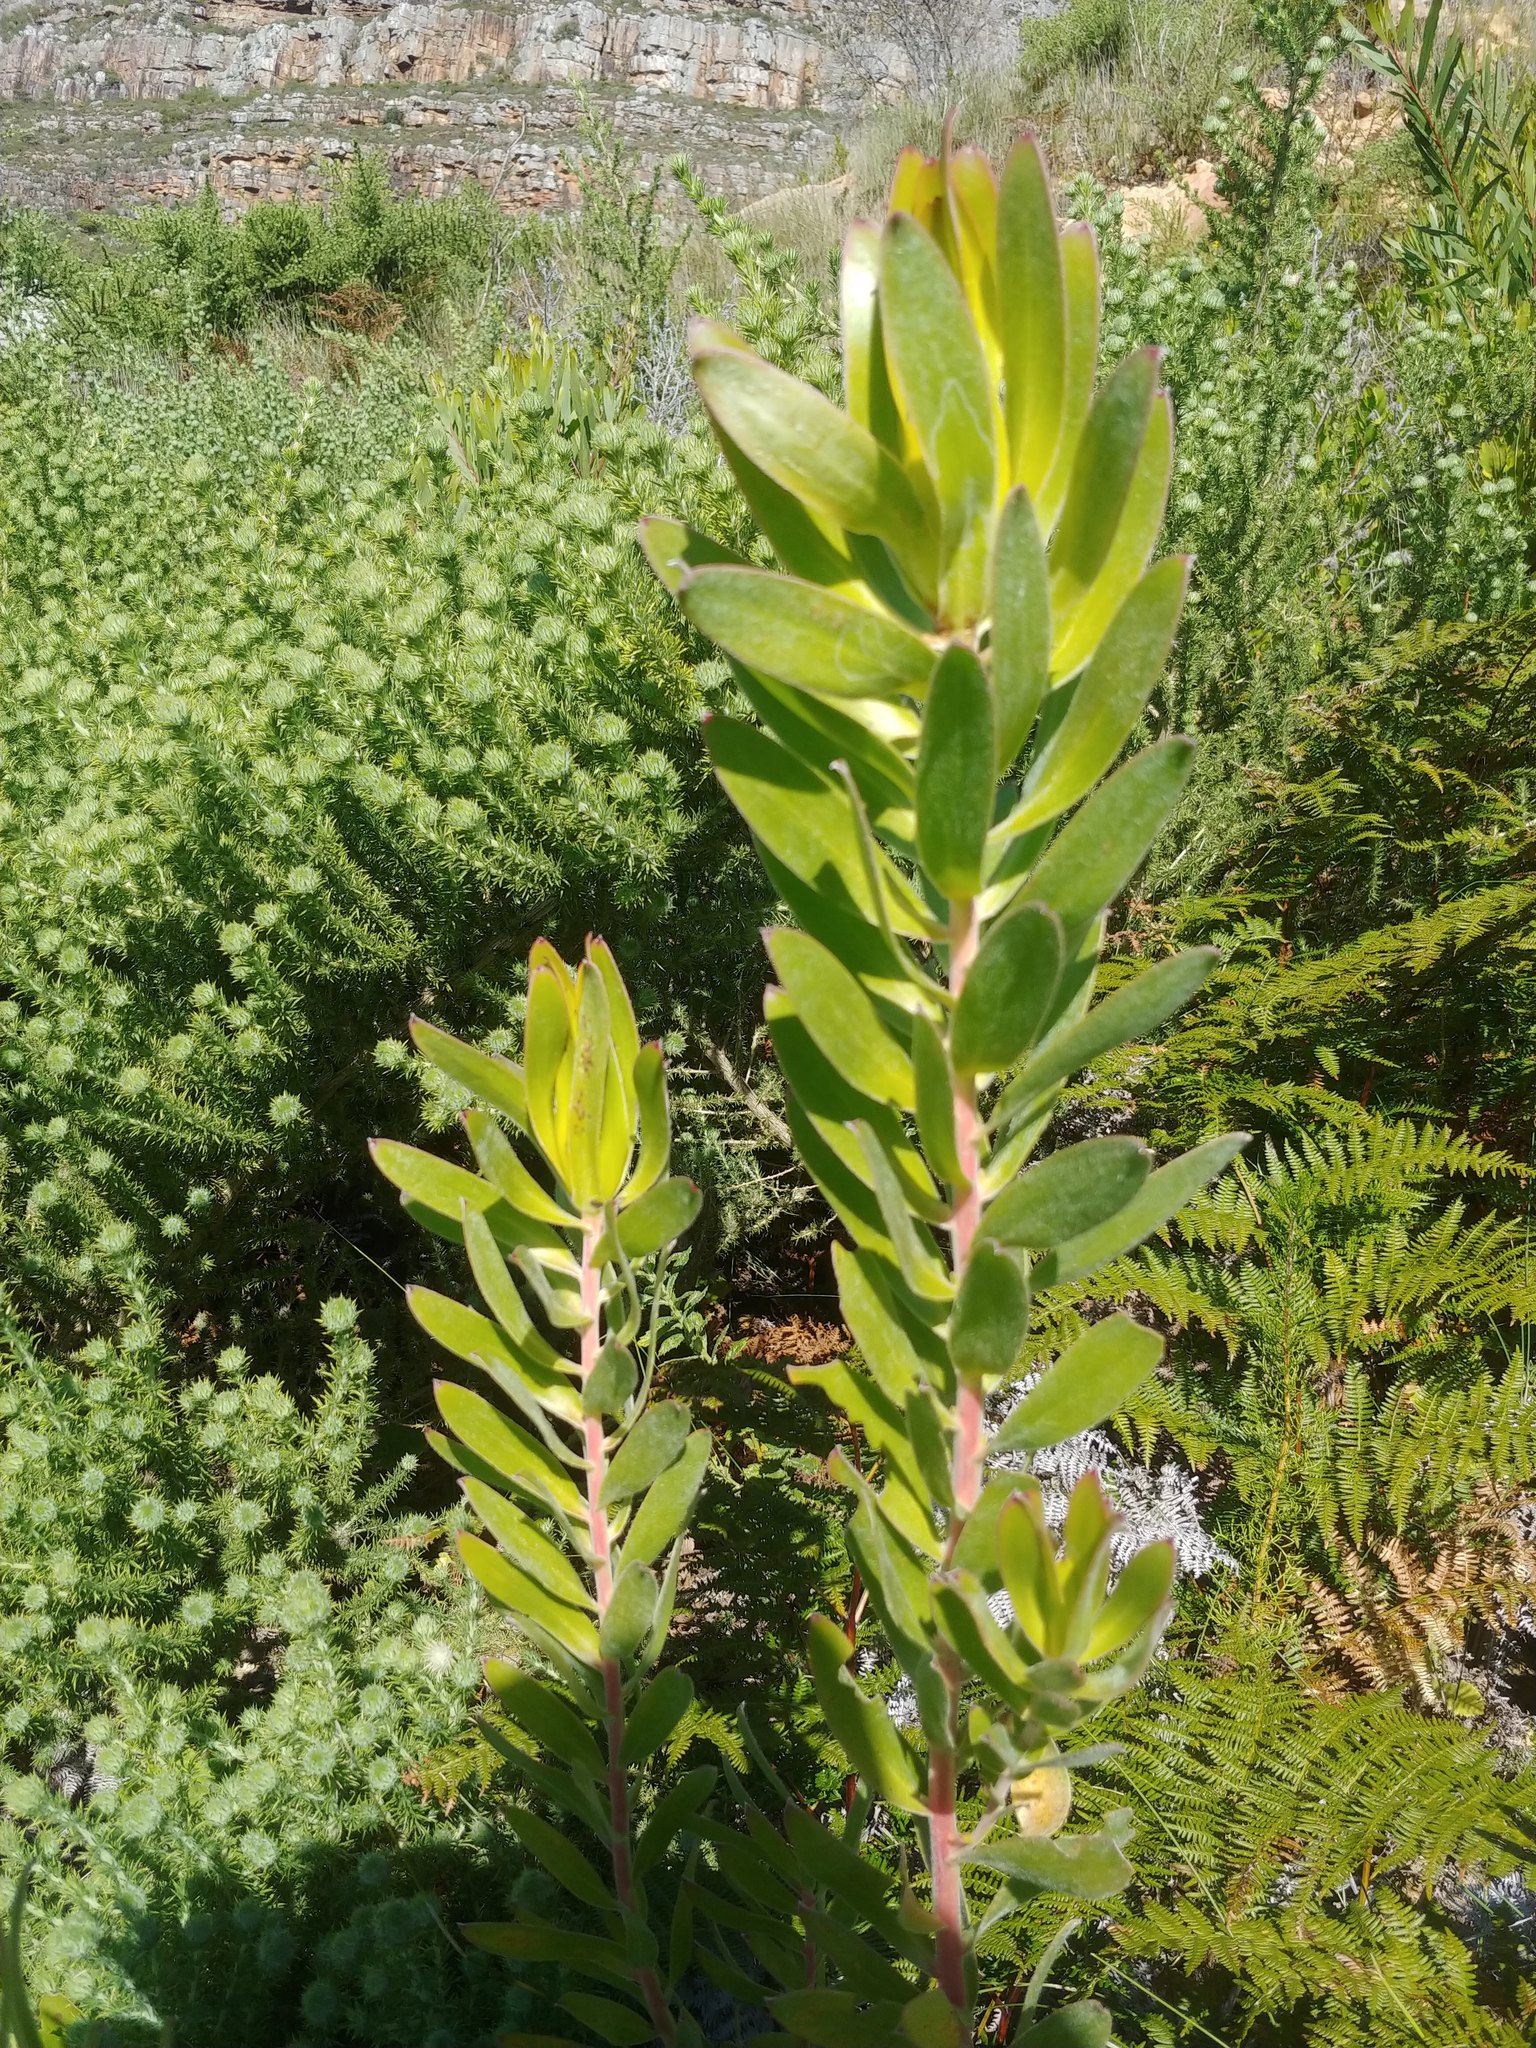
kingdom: Plantae
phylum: Tracheophyta
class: Magnoliopsida
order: Proteales
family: Proteaceae
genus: Leucadendron
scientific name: Leucadendron laureolum
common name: Golden sunshinebush
